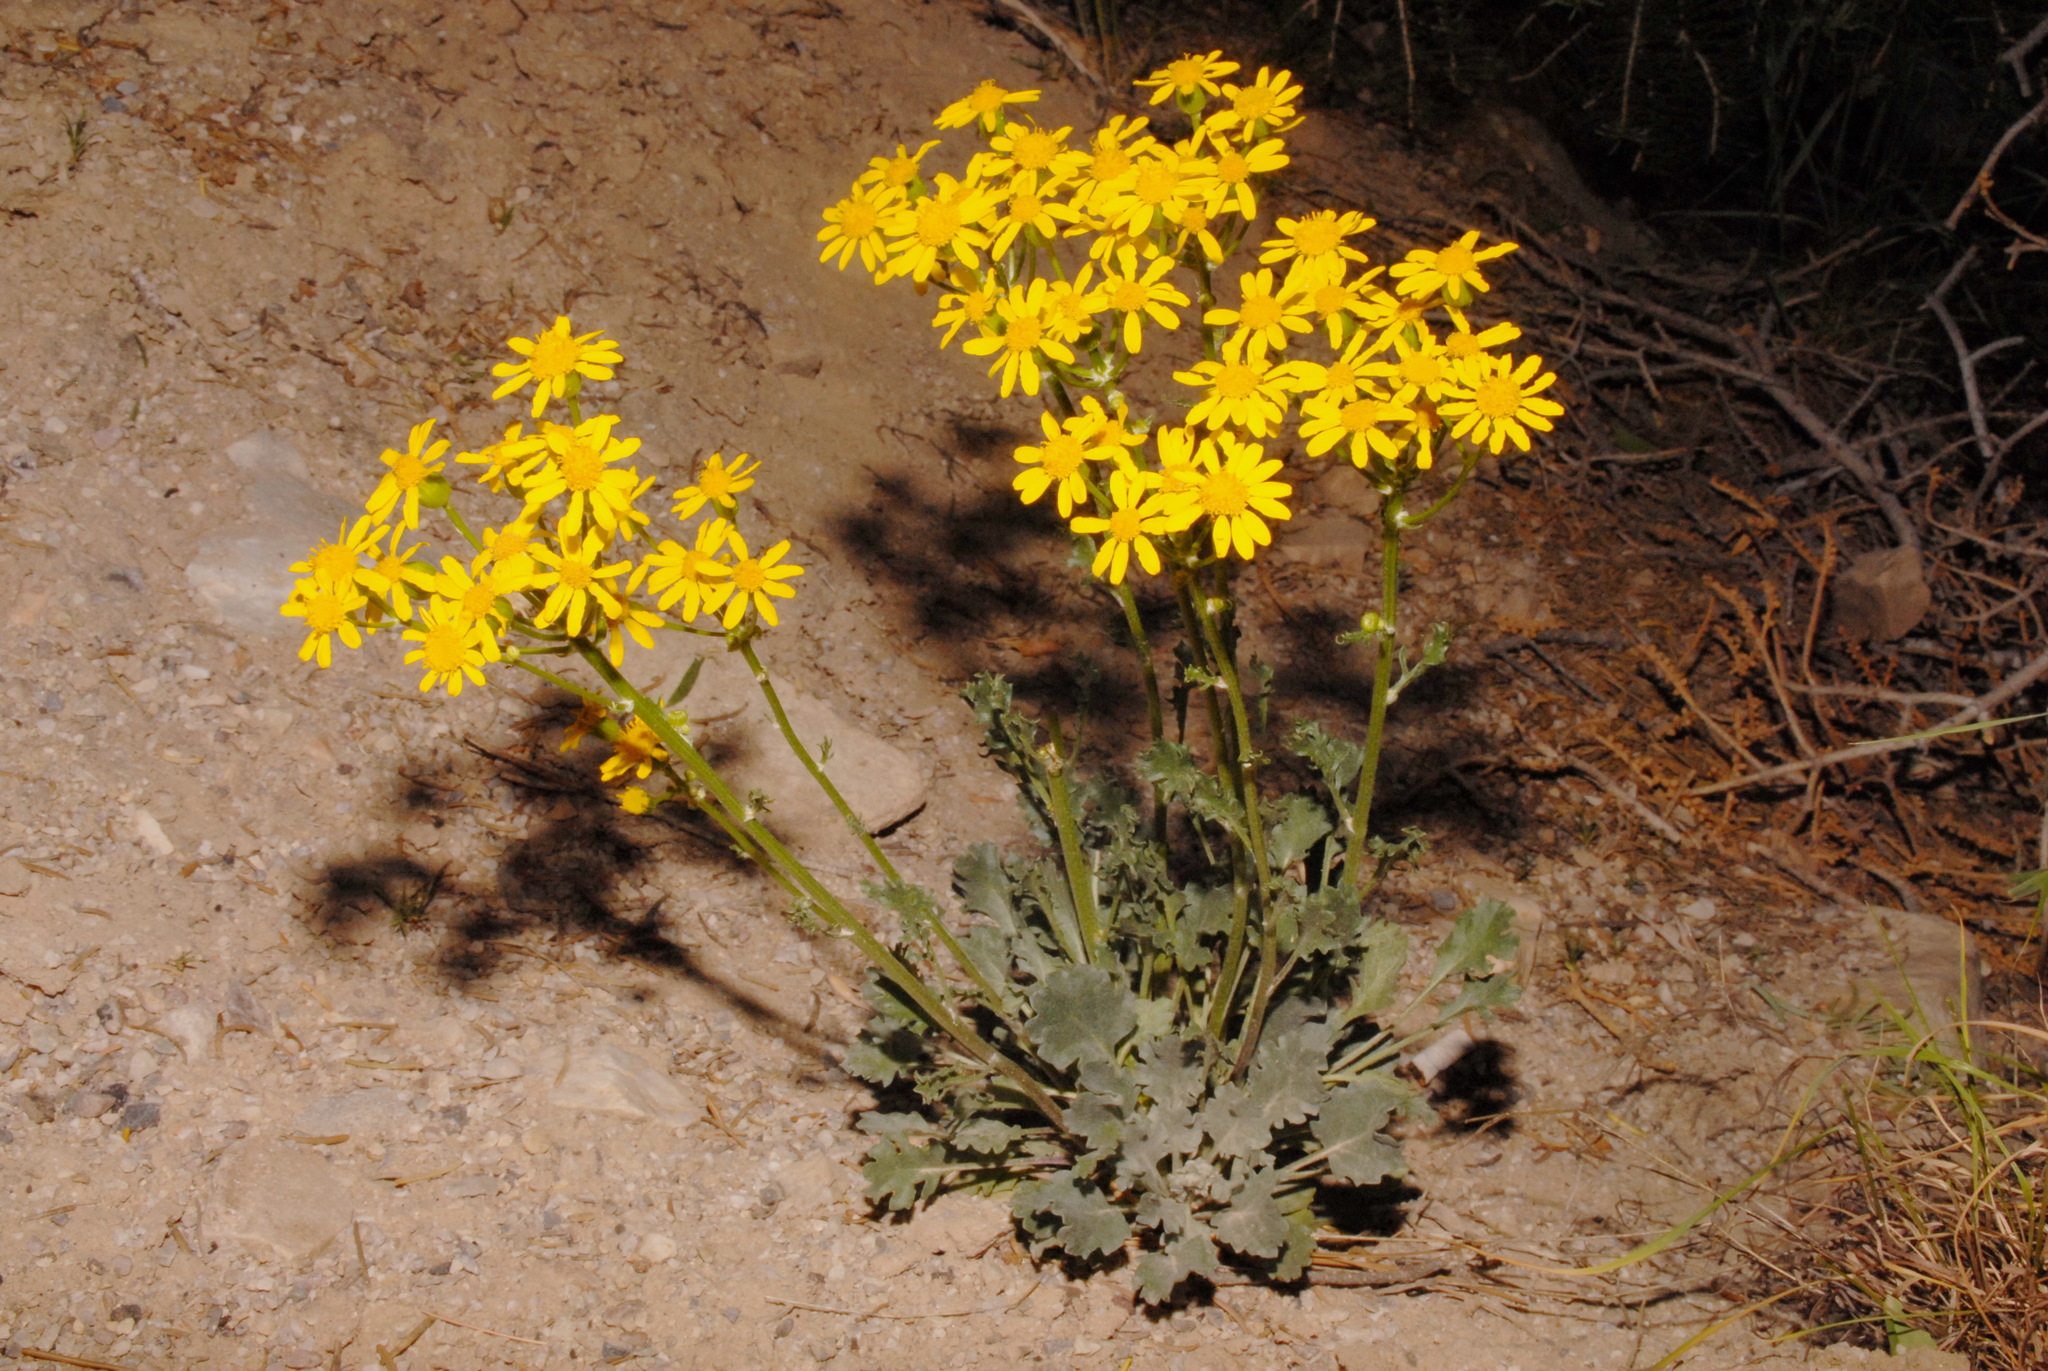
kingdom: Plantae
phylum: Tracheophyta
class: Magnoliopsida
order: Asterales
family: Asteraceae
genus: Packera
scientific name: Packera multilobata
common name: Lobe-leaf groundsel
